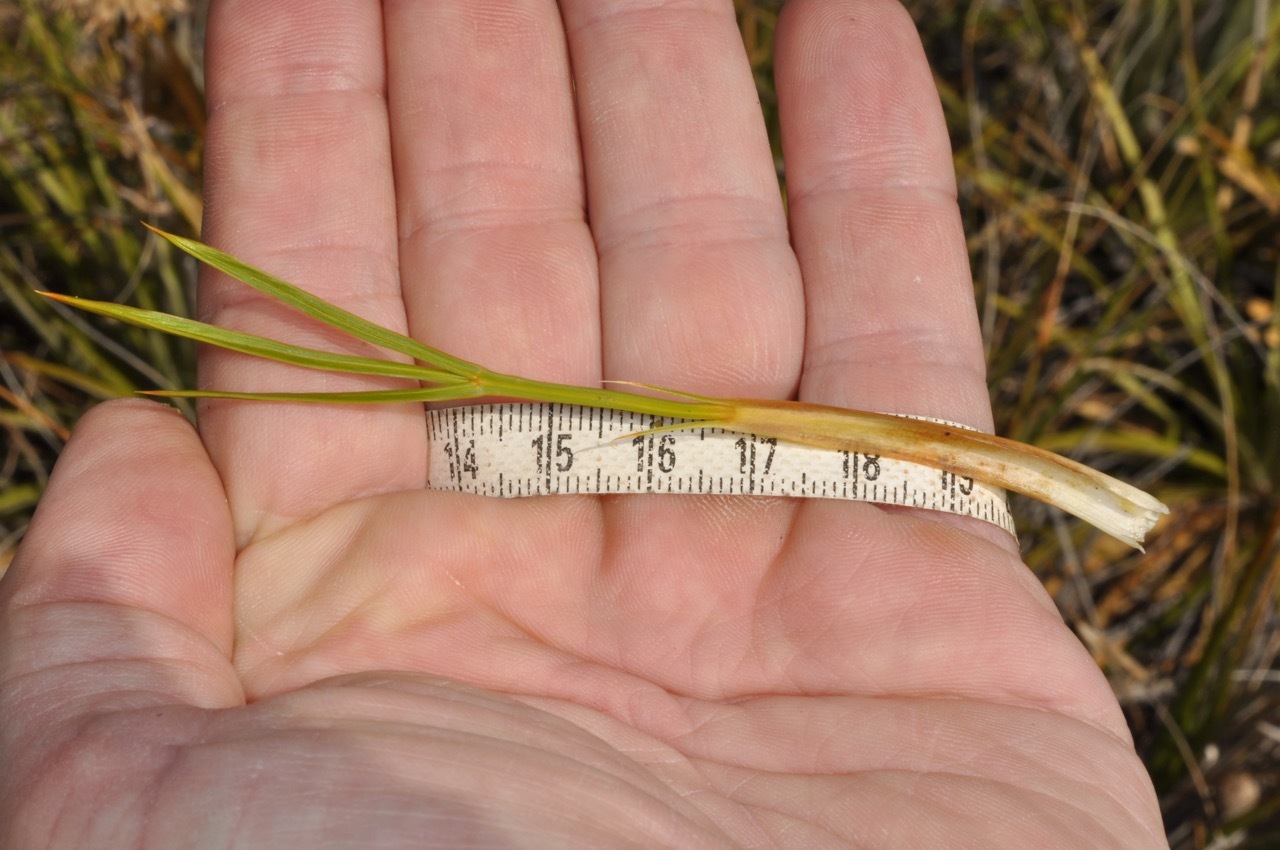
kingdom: Plantae
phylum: Tracheophyta
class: Magnoliopsida
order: Apiales
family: Apiaceae
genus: Aciphylla
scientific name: Aciphylla montana
